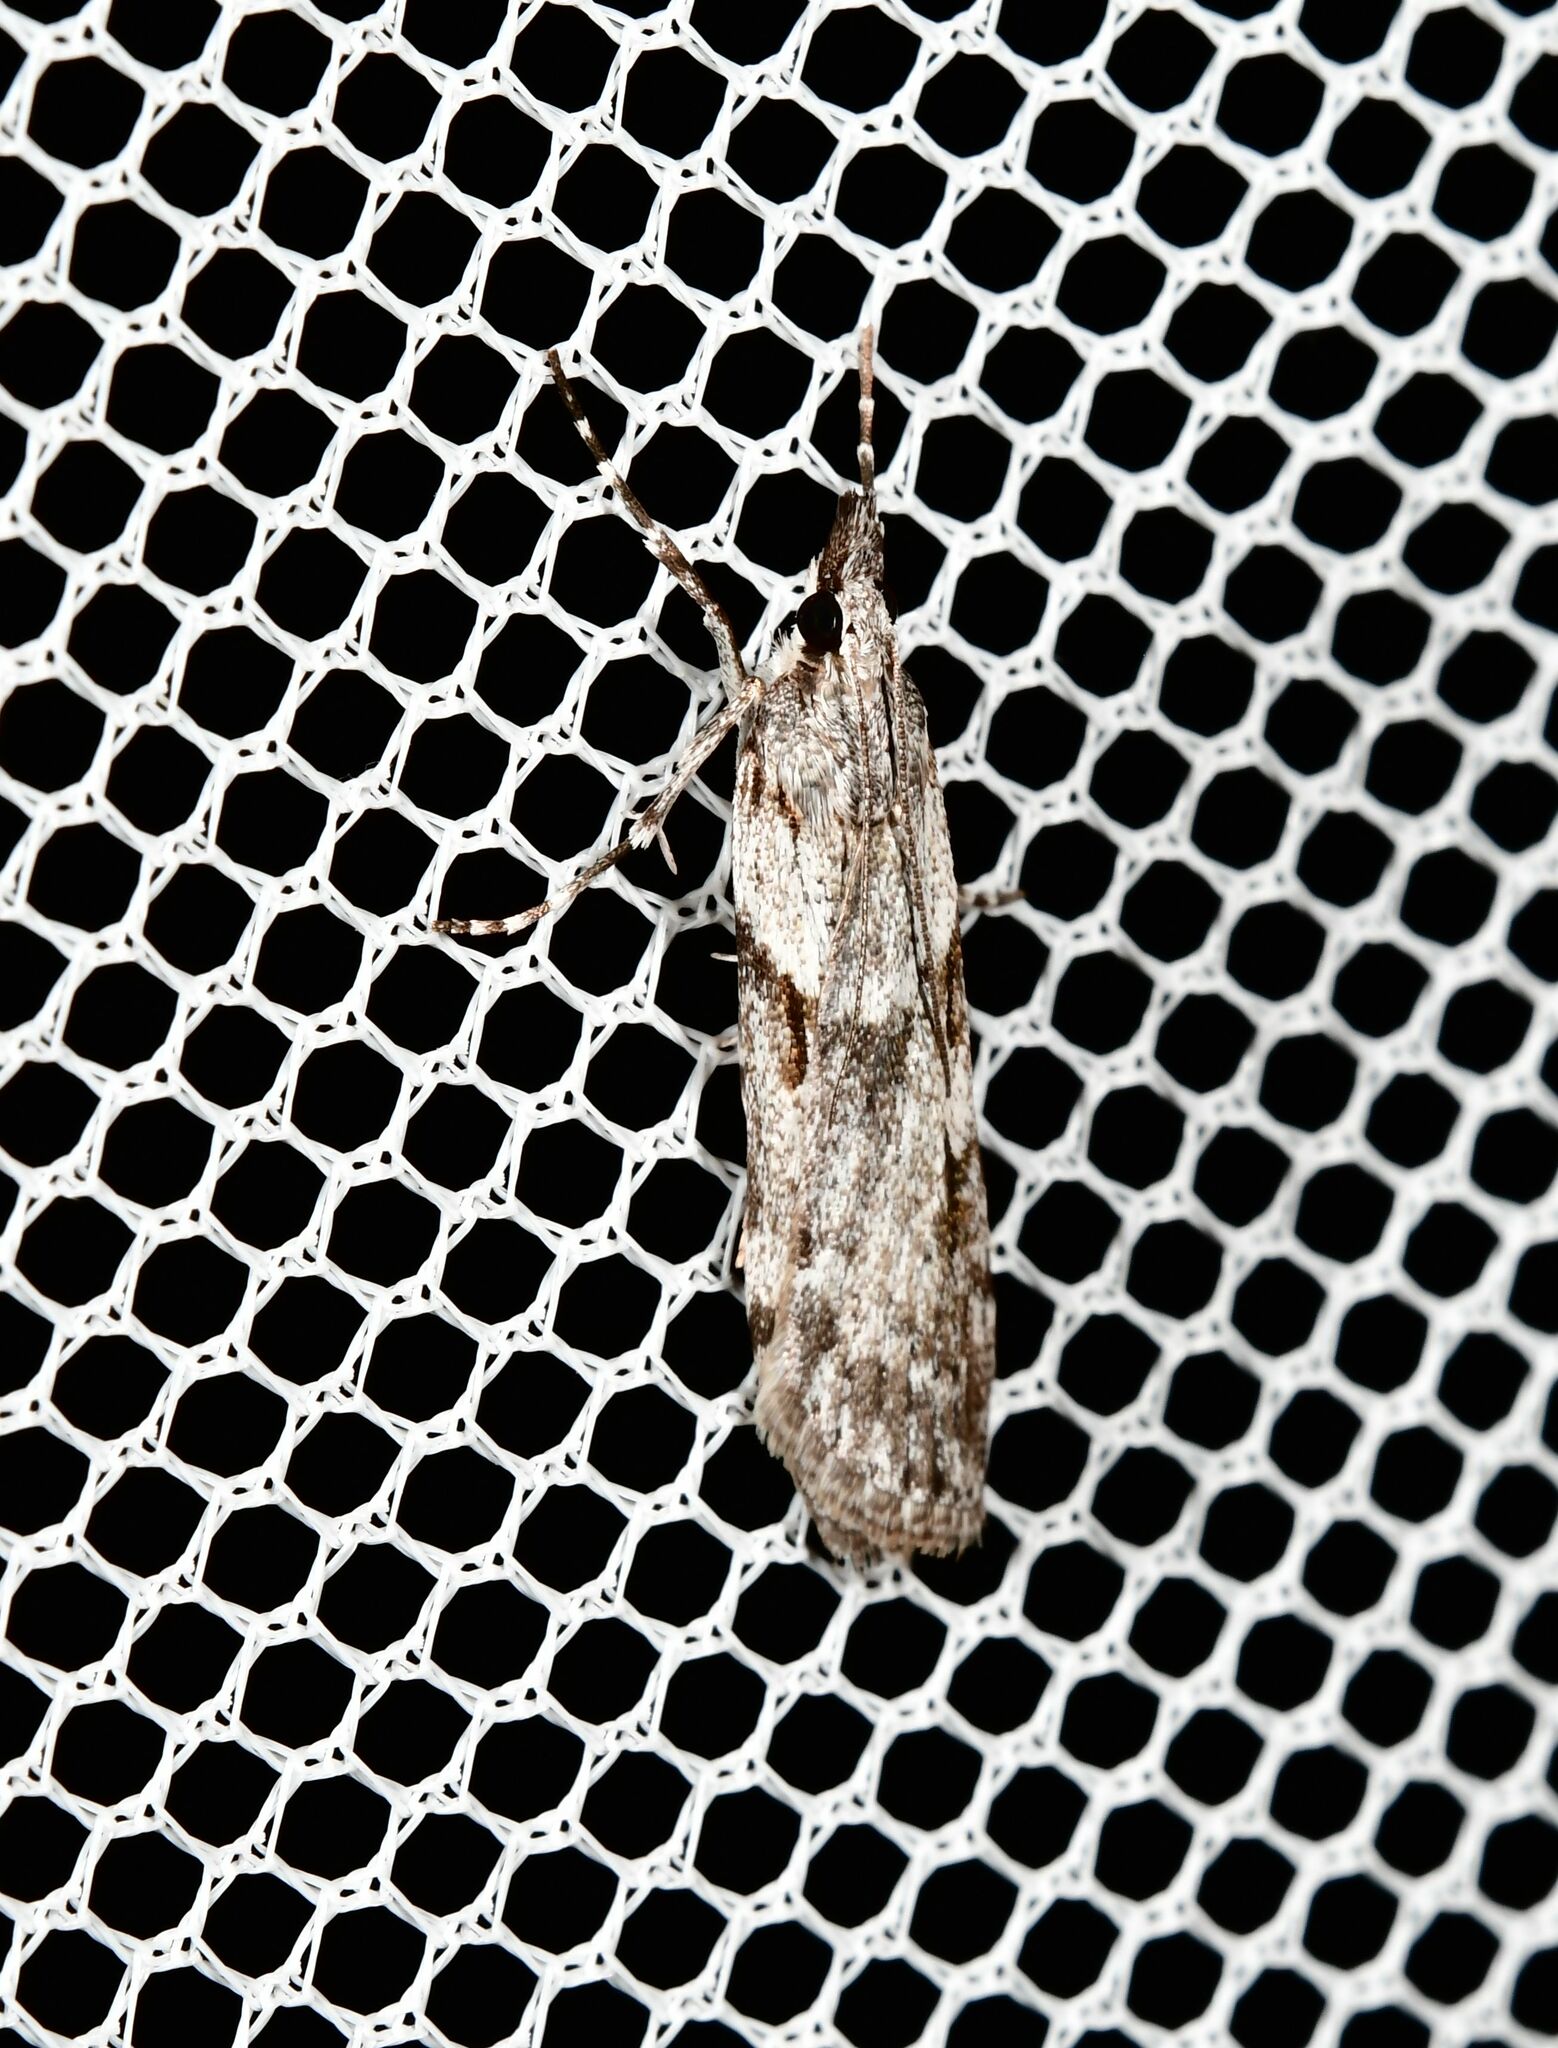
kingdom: Animalia
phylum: Arthropoda
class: Insecta
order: Lepidoptera
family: Crambidae
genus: Scoparia
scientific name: Scoparia halopis
